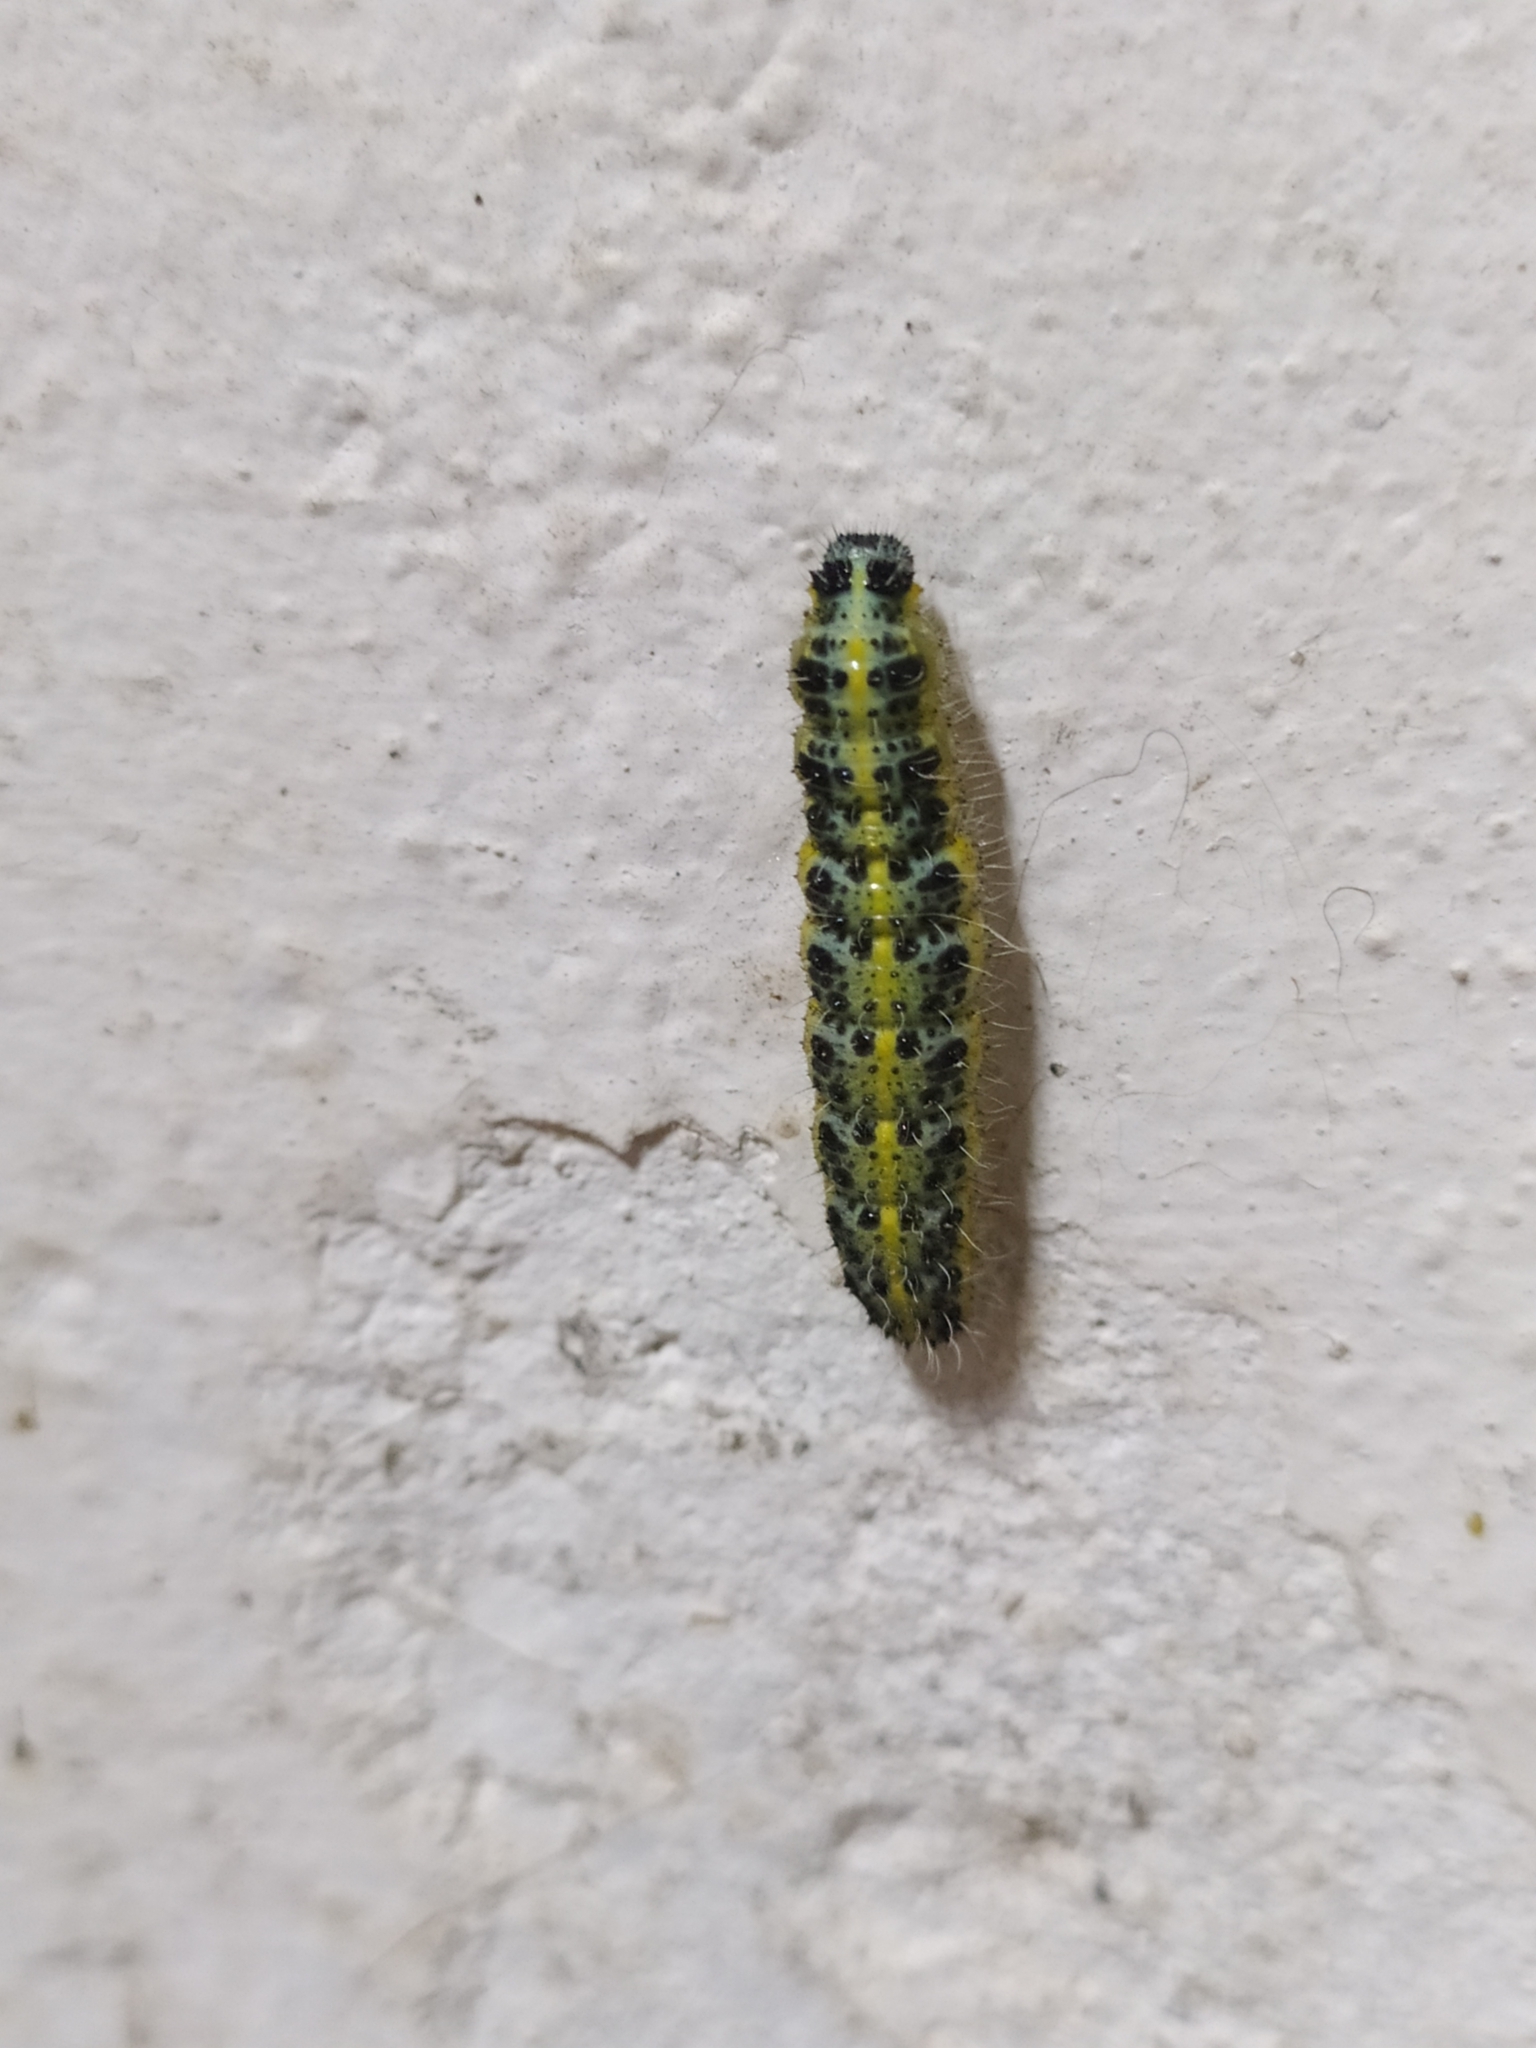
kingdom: Animalia
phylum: Arthropoda
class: Insecta
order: Lepidoptera
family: Pieridae
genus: Pieris
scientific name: Pieris brassicae
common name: Large white
